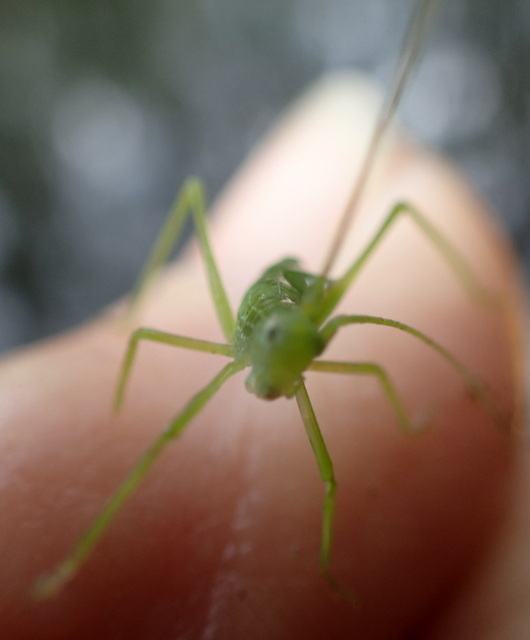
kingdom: Animalia
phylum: Arthropoda
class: Insecta
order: Orthoptera
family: Tettigoniidae
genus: Pterophylla
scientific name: Pterophylla camellifolia
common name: Common true katydid
